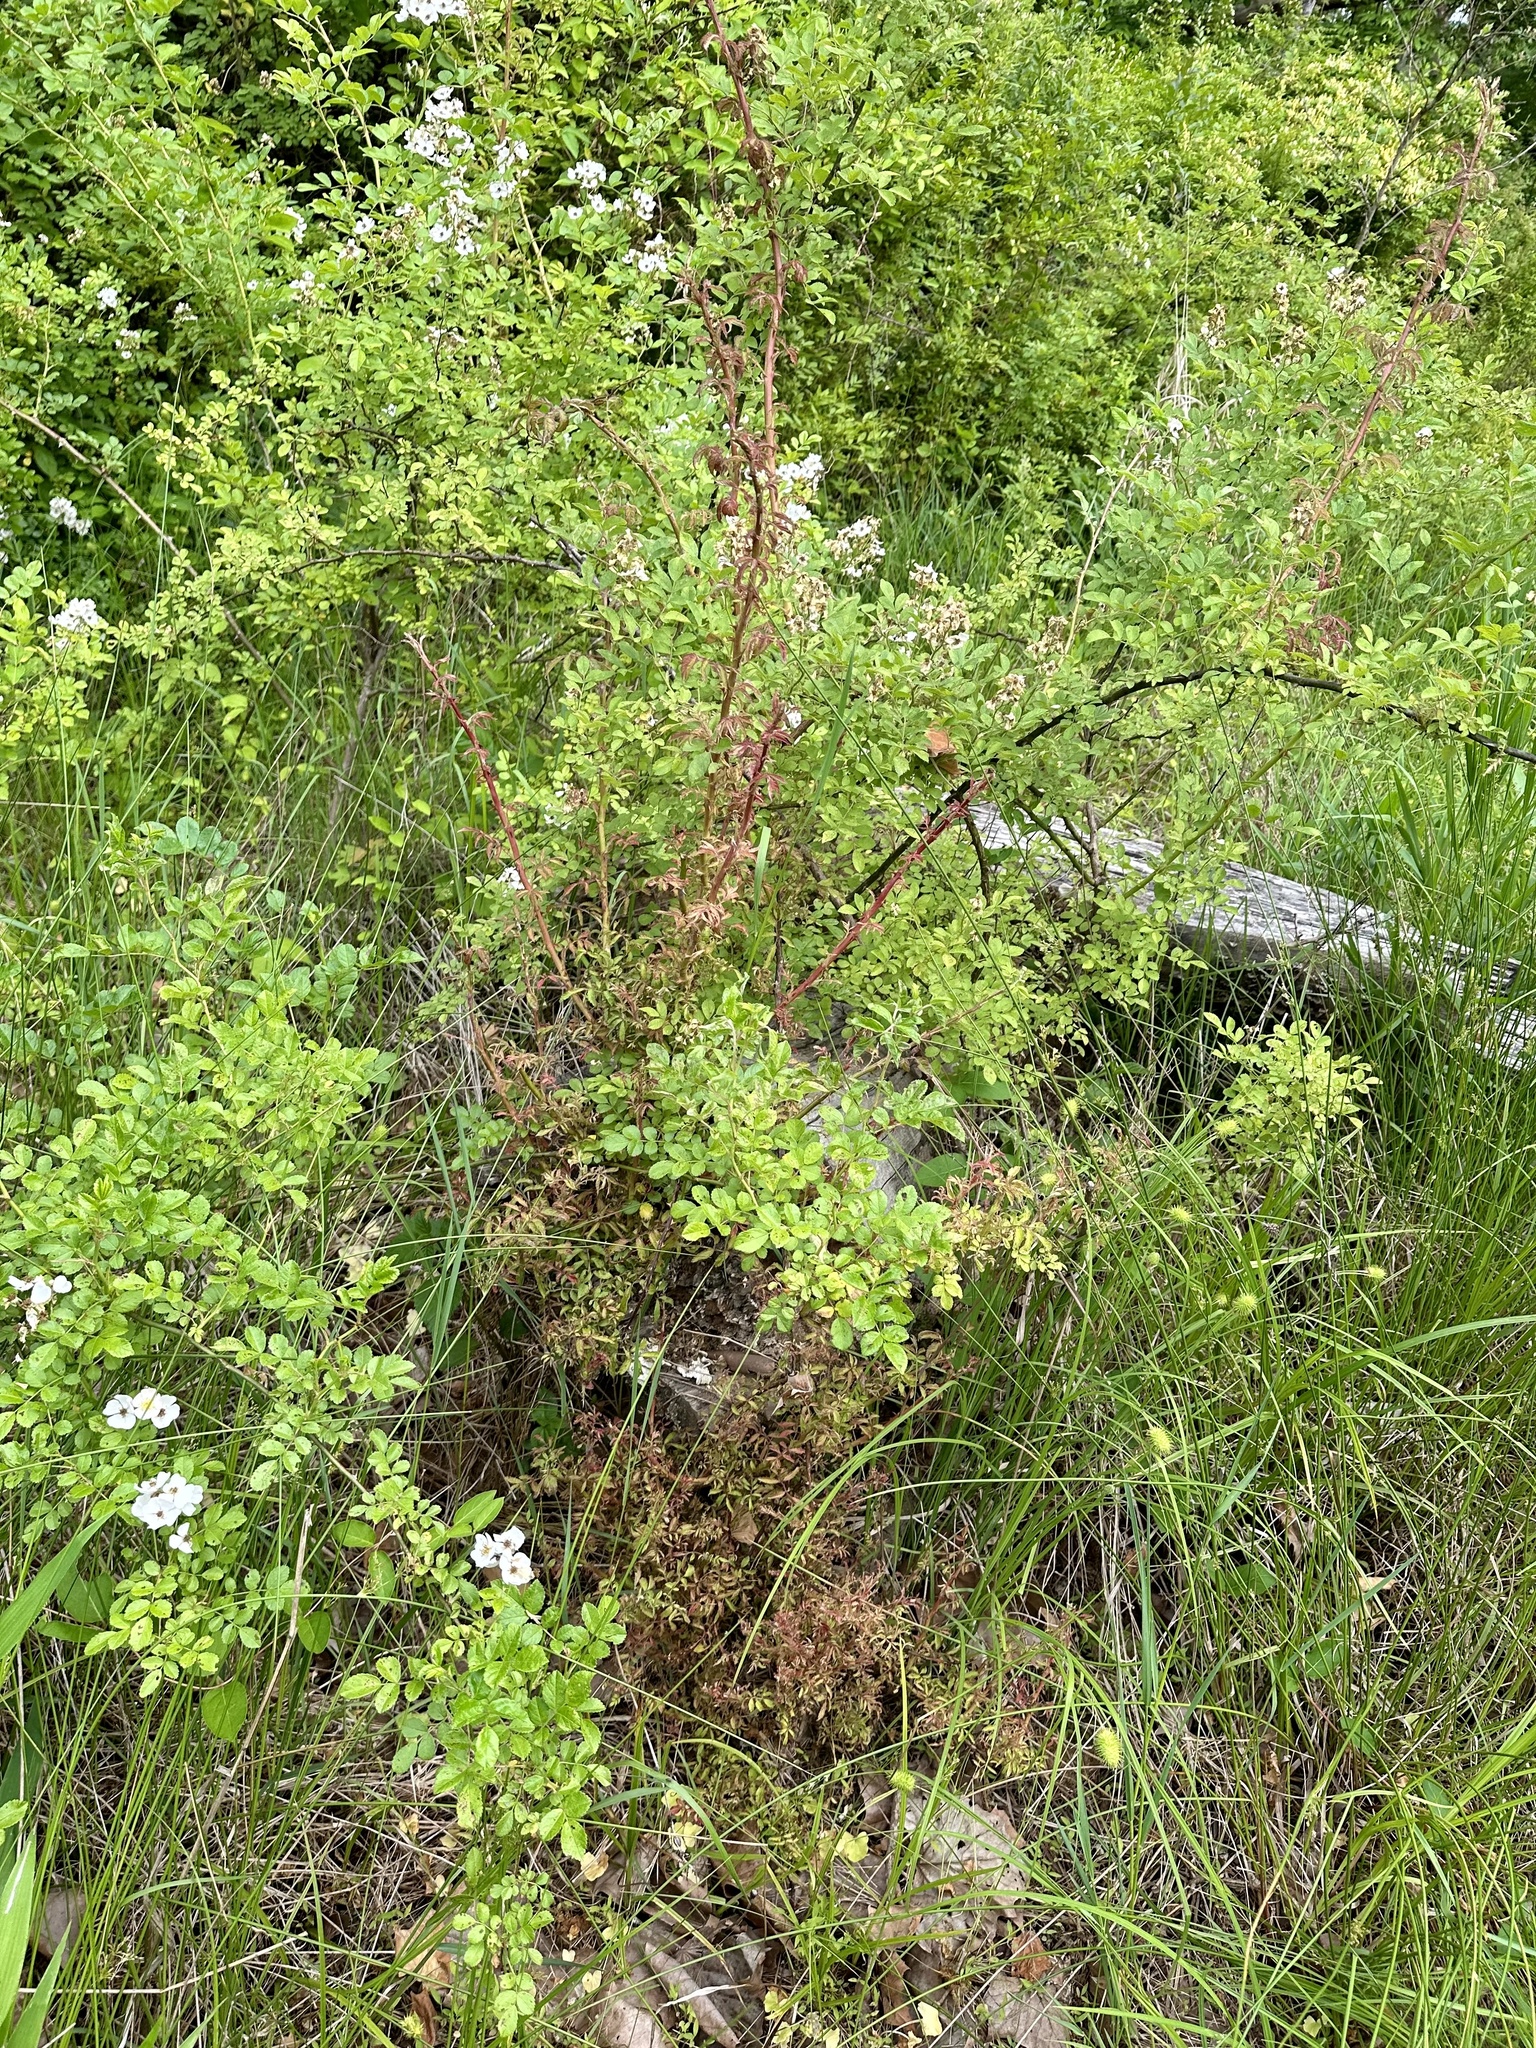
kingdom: Plantae
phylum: Tracheophyta
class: Magnoliopsida
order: Rosales
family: Rosaceae
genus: Rosa
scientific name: Rosa multiflora
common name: Multiflora rose
